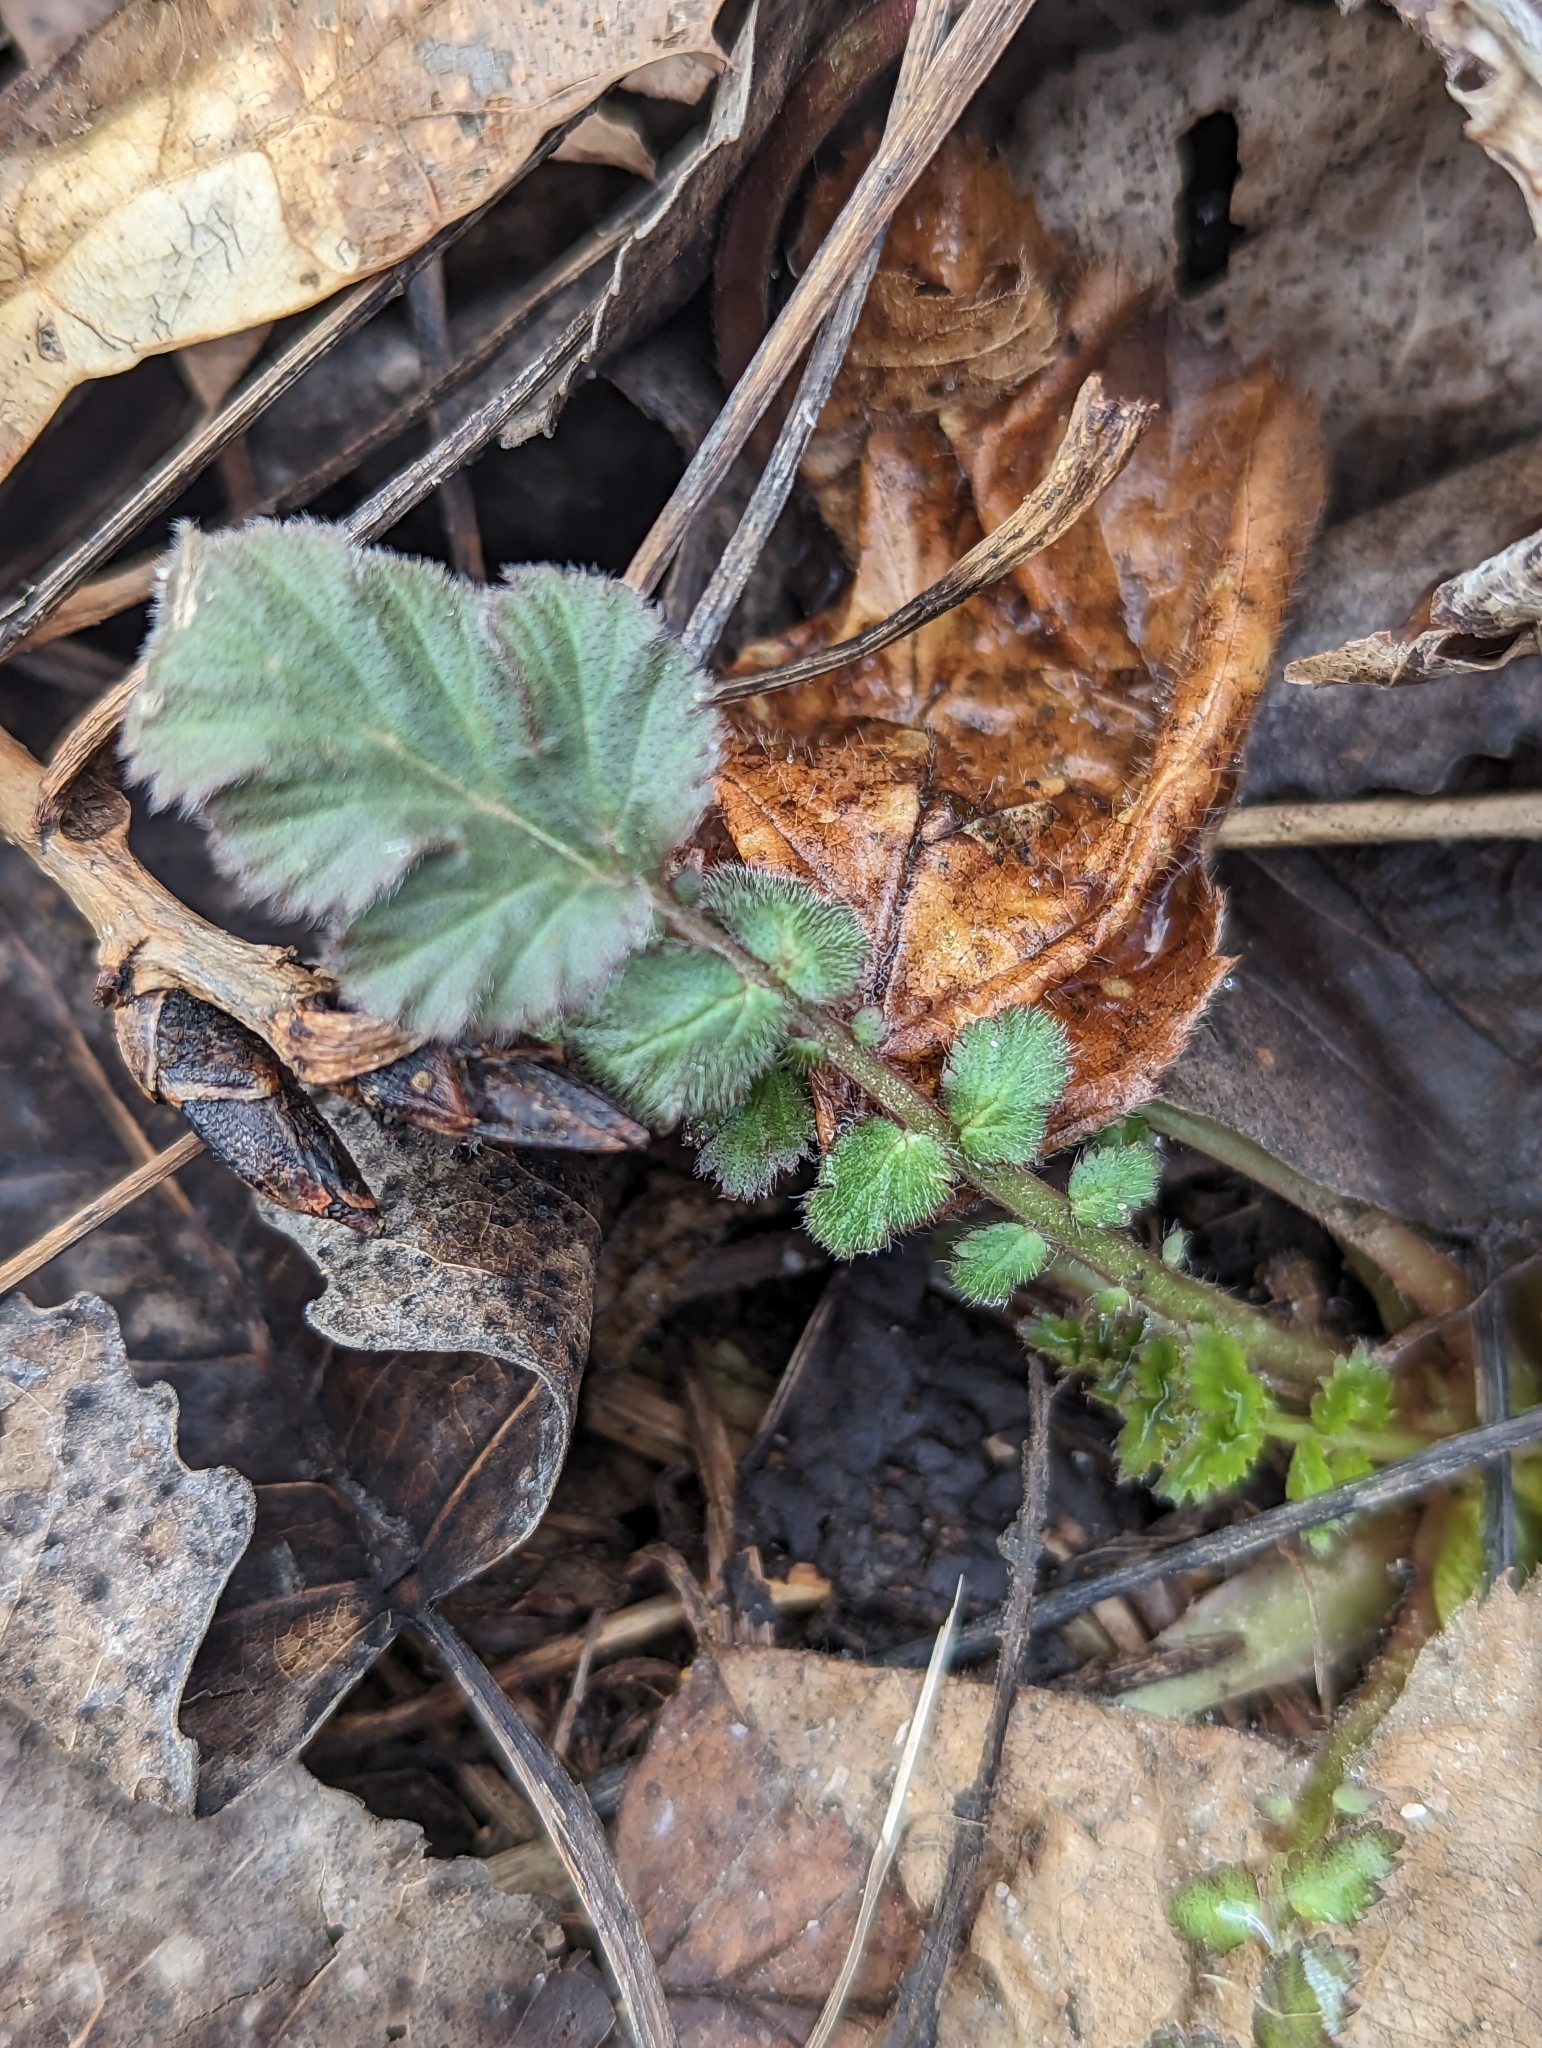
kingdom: Plantae
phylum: Tracheophyta
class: Magnoliopsida
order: Rosales
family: Rosaceae
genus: Geum
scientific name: Geum canadense
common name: White avens
